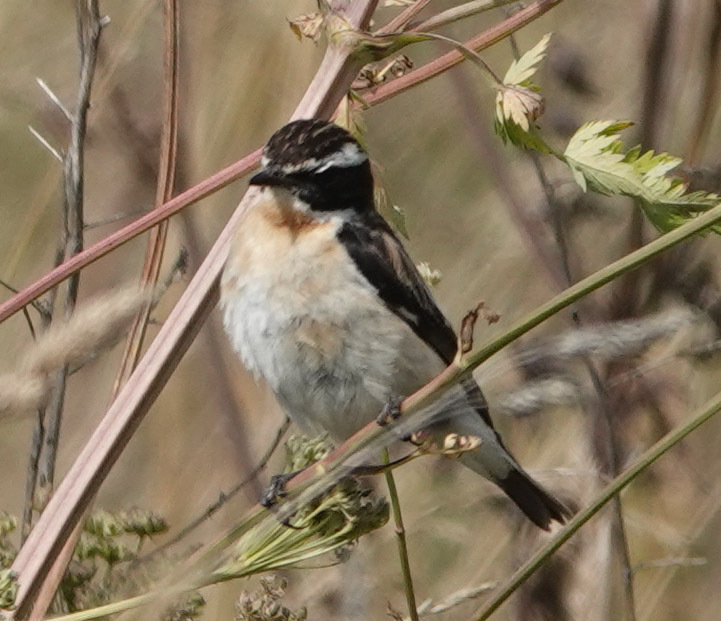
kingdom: Animalia
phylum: Chordata
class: Aves
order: Passeriformes
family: Muscicapidae
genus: Saxicola
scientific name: Saxicola rubetra
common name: Whinchat
